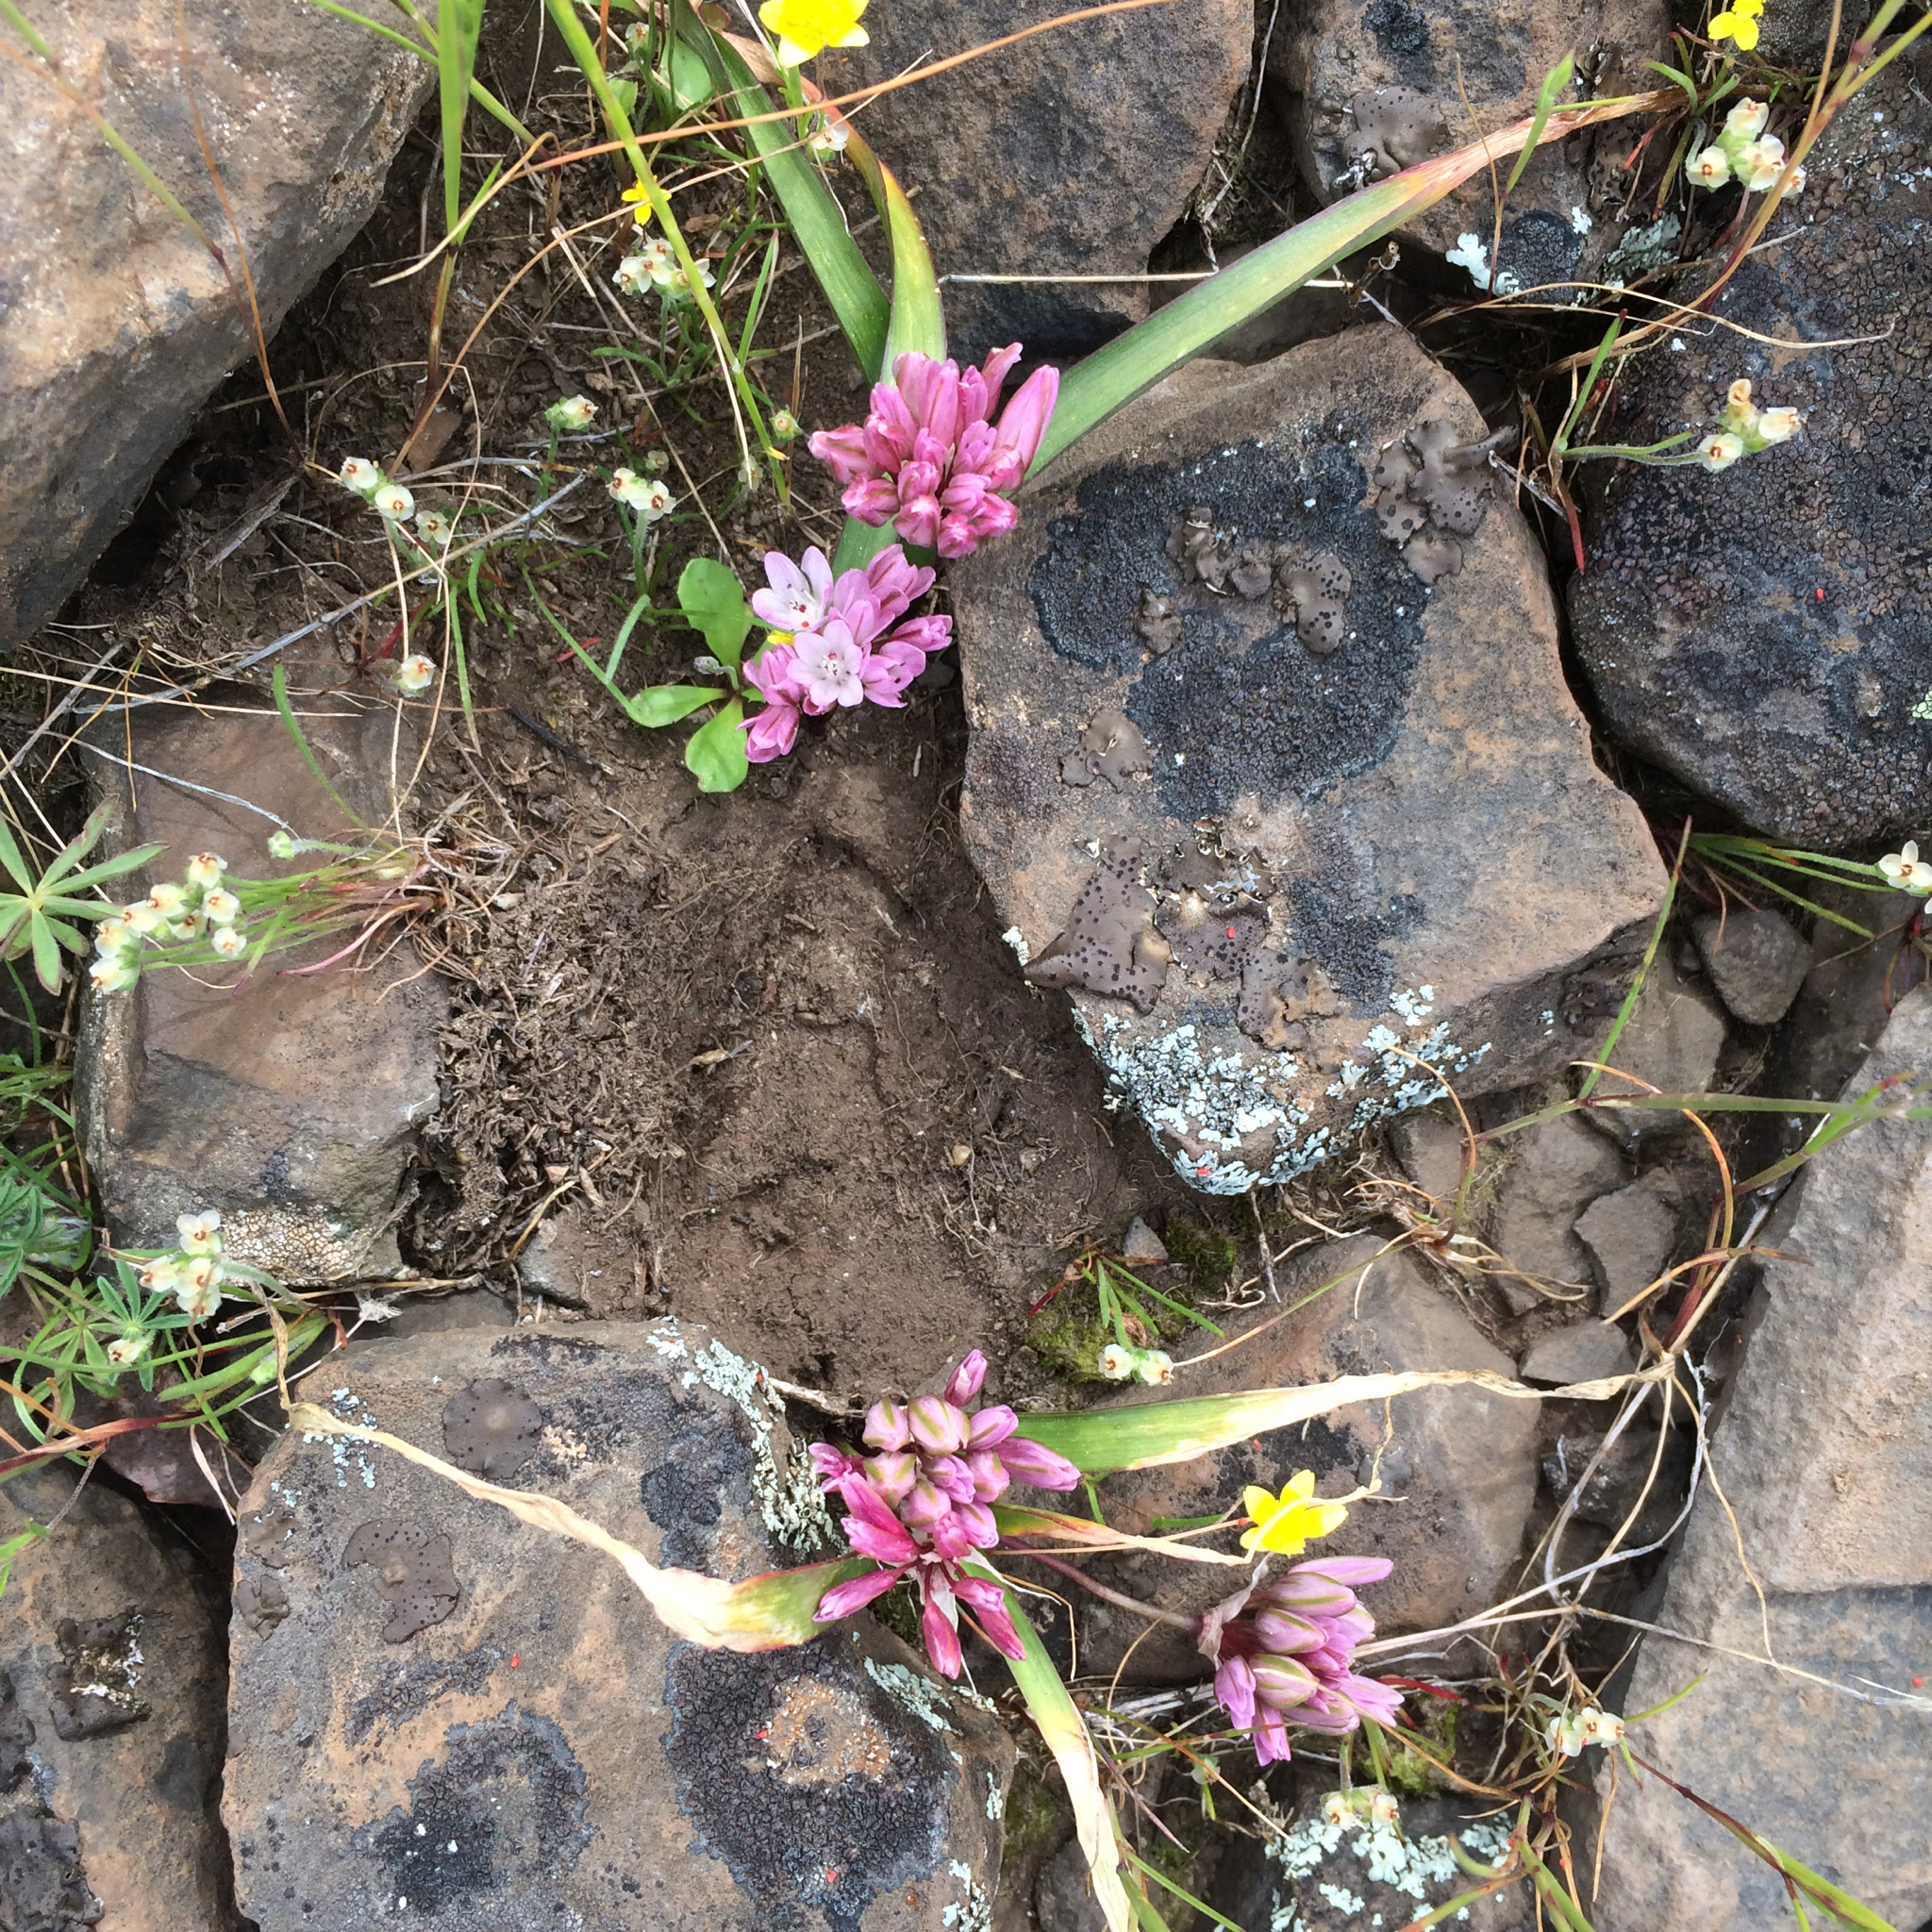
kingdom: Plantae
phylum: Tracheophyta
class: Liliopsida
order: Asparagales
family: Amaryllidaceae
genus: Allium
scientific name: Allium cratericola
